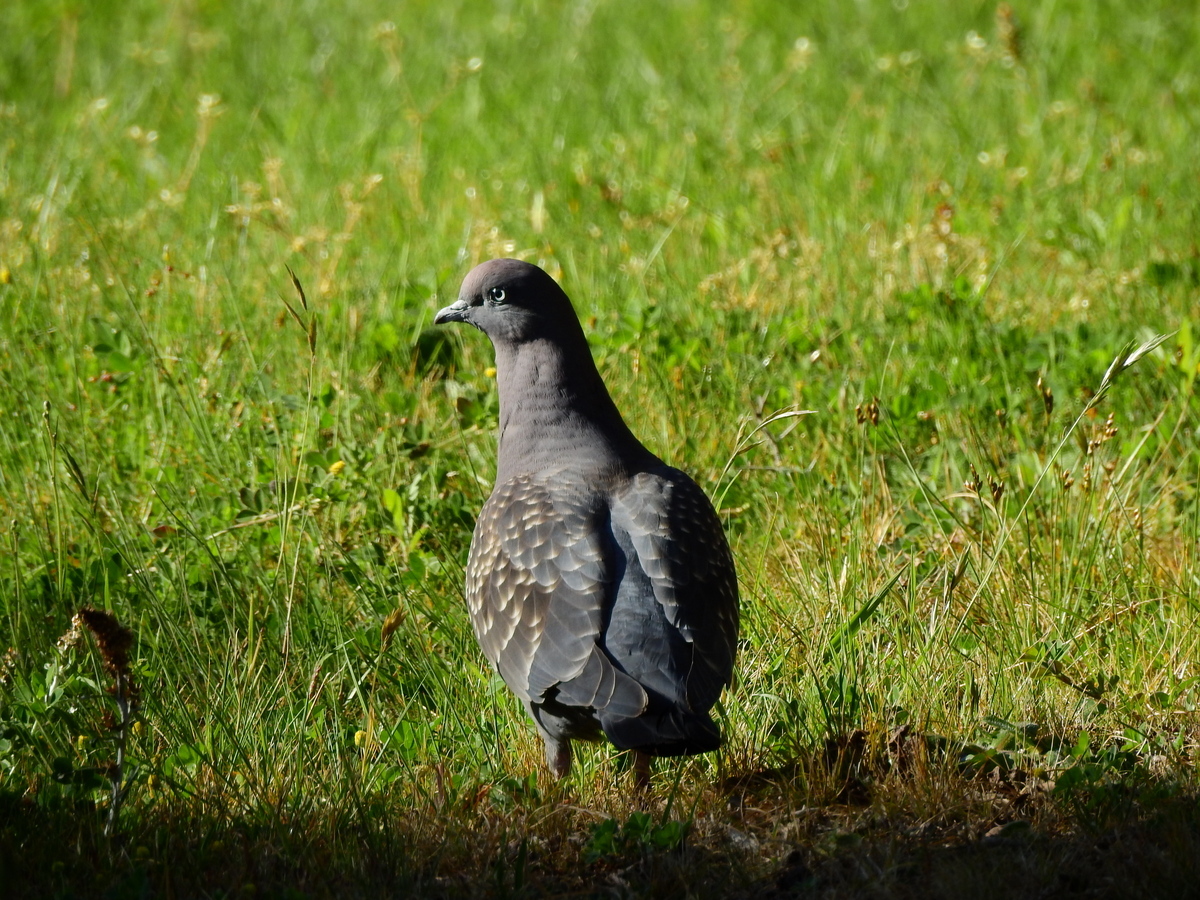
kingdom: Animalia
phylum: Chordata
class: Aves
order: Columbiformes
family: Columbidae
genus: Patagioenas
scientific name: Patagioenas maculosa
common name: Spot-winged pigeon
